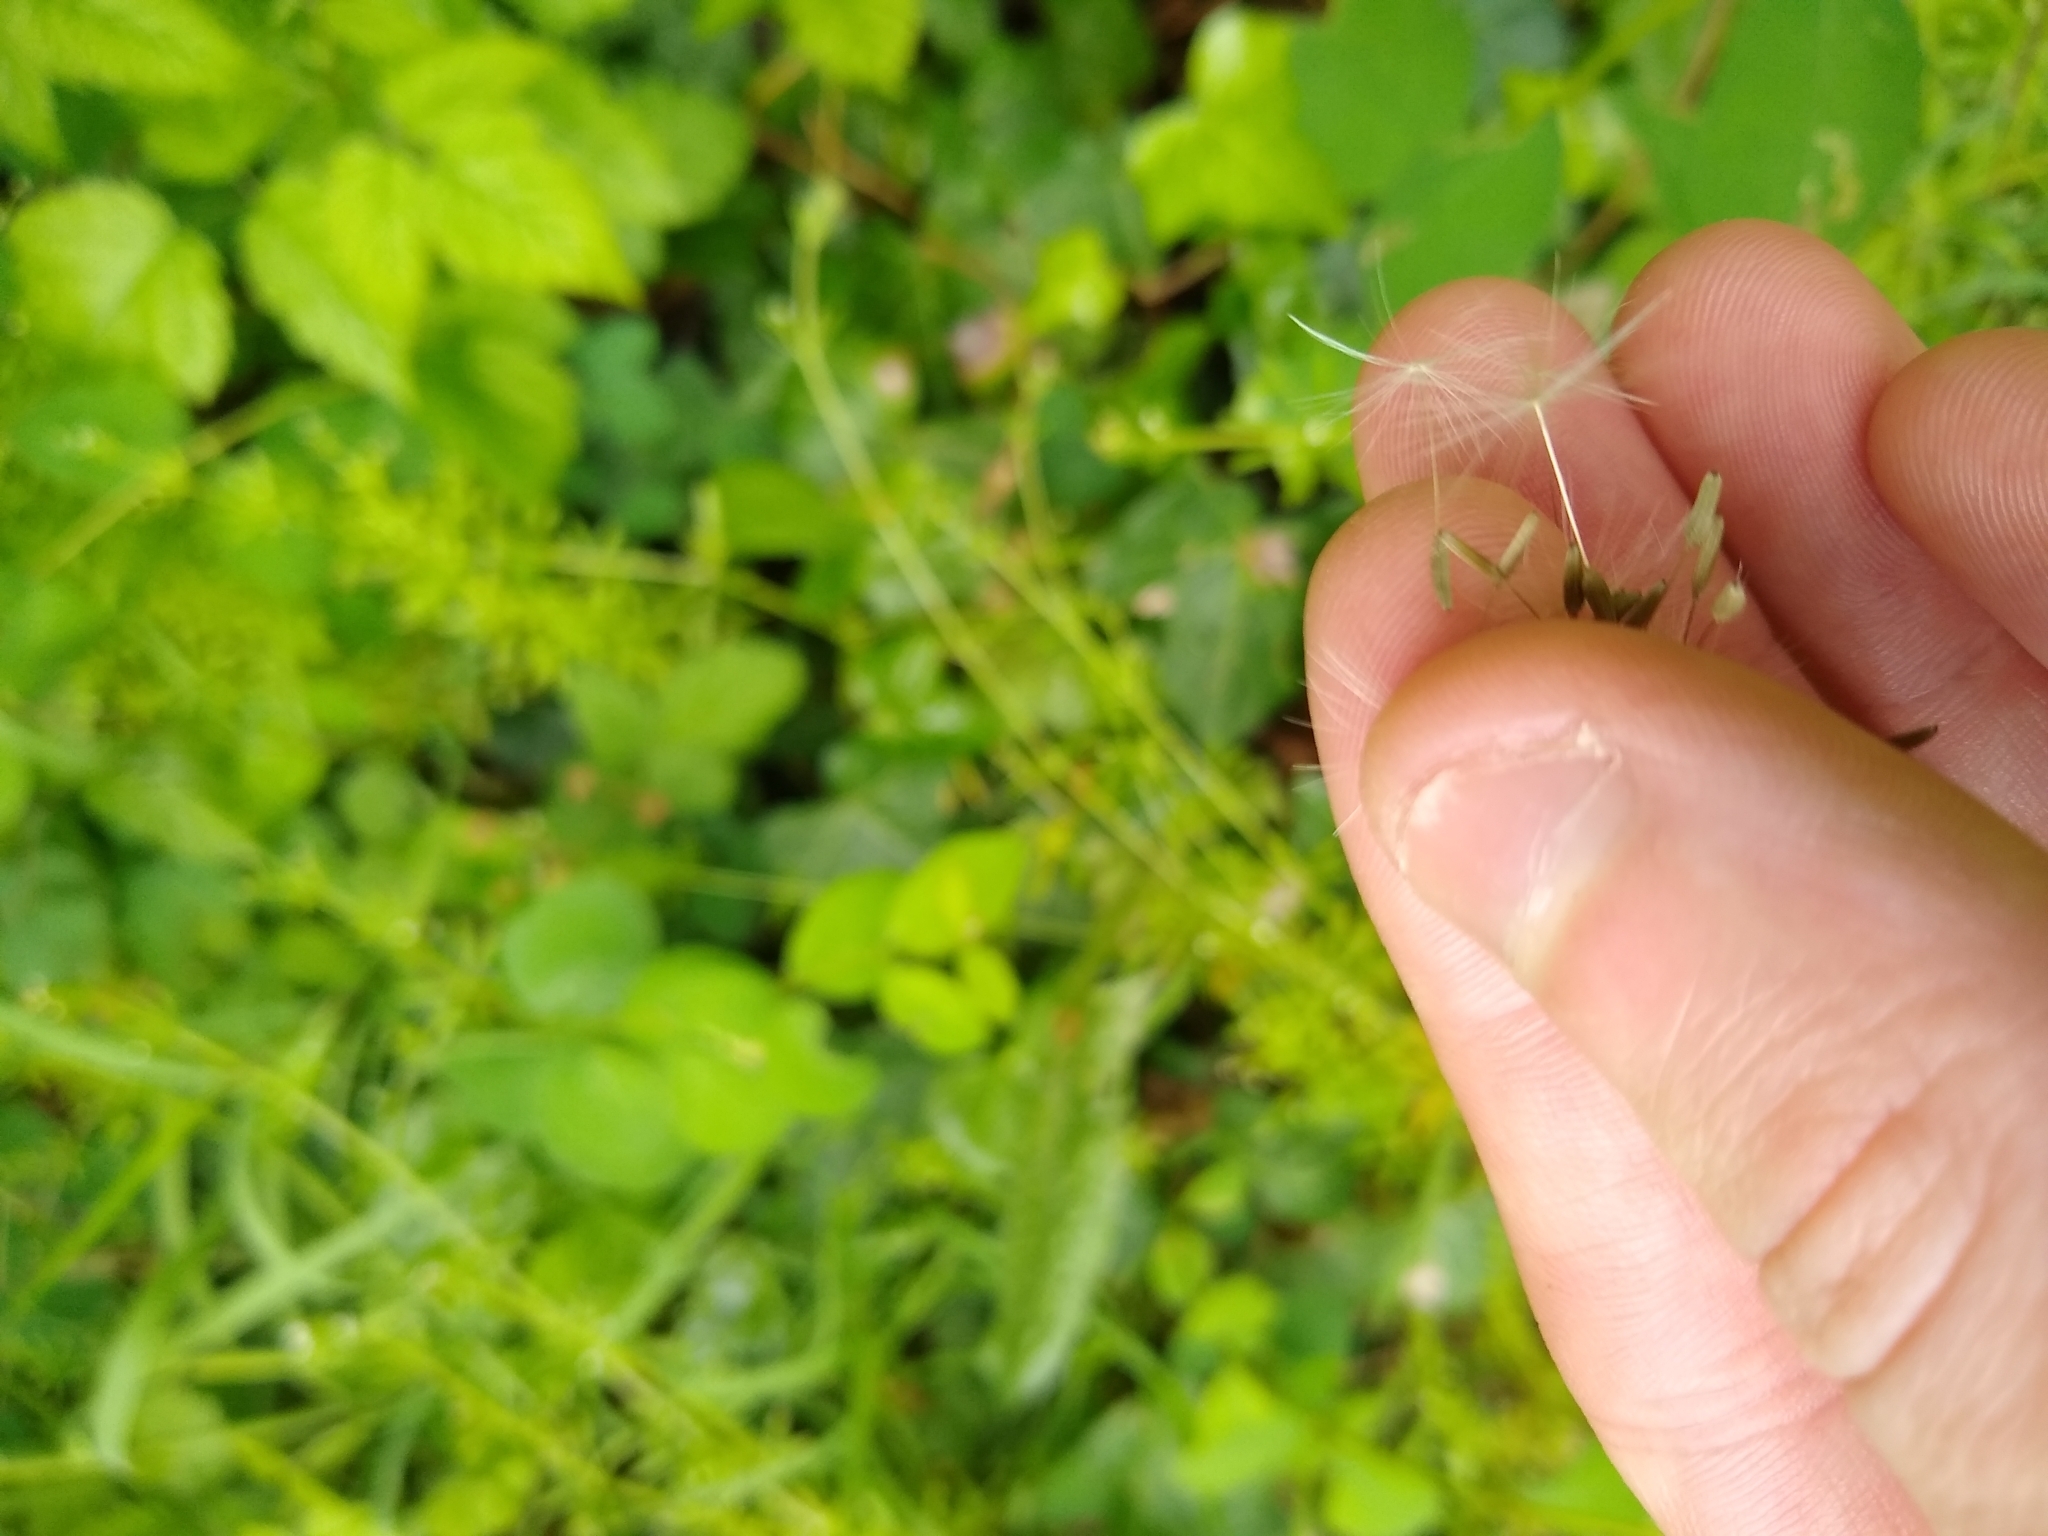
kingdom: Plantae
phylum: Tracheophyta
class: Magnoliopsida
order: Asterales
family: Asteraceae
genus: Taraxacum
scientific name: Taraxacum officinale
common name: Common dandelion
